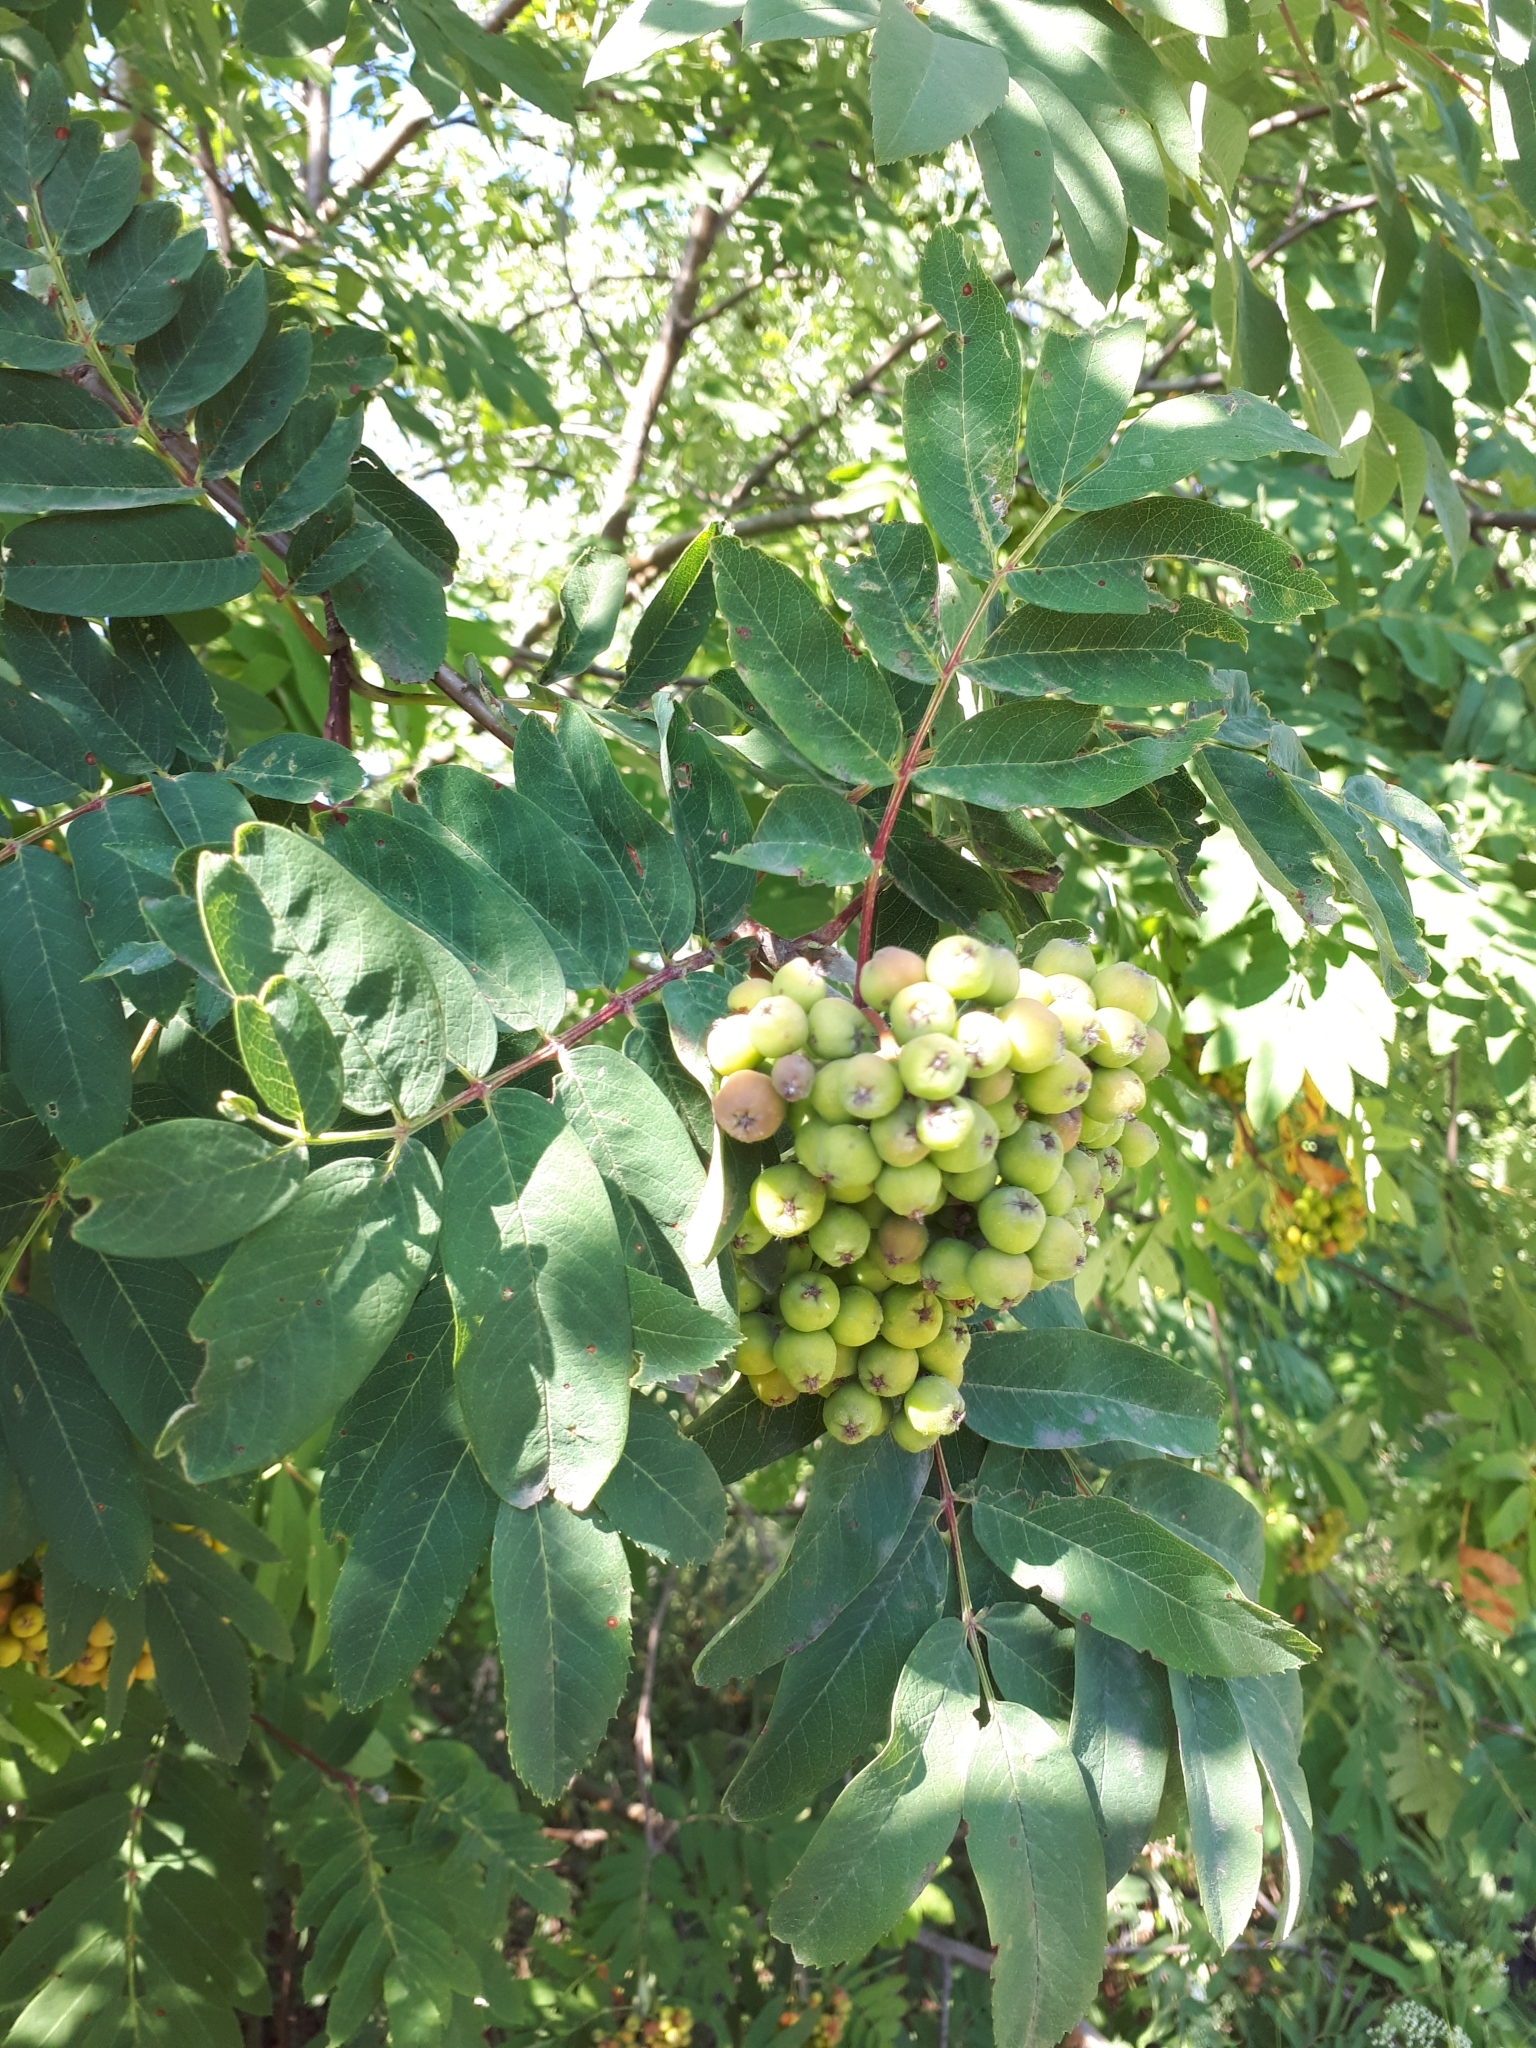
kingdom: Plantae
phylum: Tracheophyta
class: Magnoliopsida
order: Rosales
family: Rosaceae
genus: Sorbus
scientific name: Sorbus aucuparia
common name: Rowan
